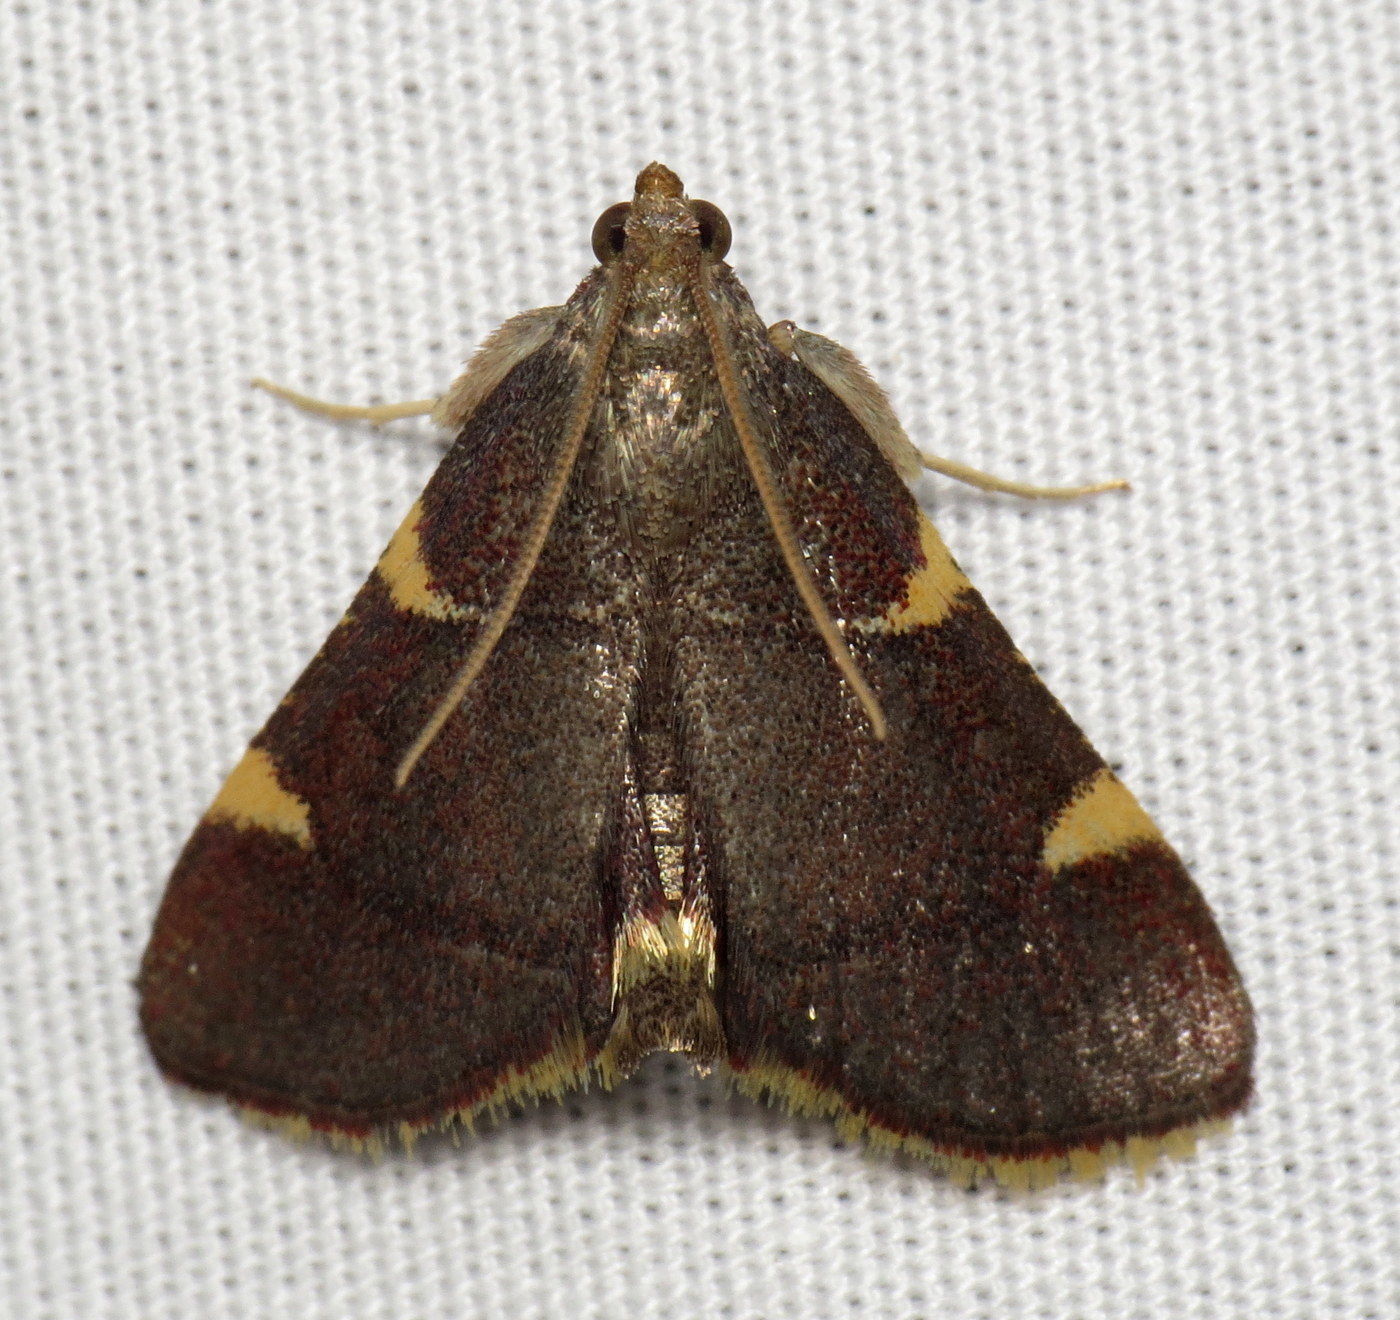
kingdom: Animalia
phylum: Arthropoda
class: Insecta
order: Lepidoptera
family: Pyralidae
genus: Hypsopygia
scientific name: Hypsopygia olinalis
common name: Yellow-fringed dolichomia moth
